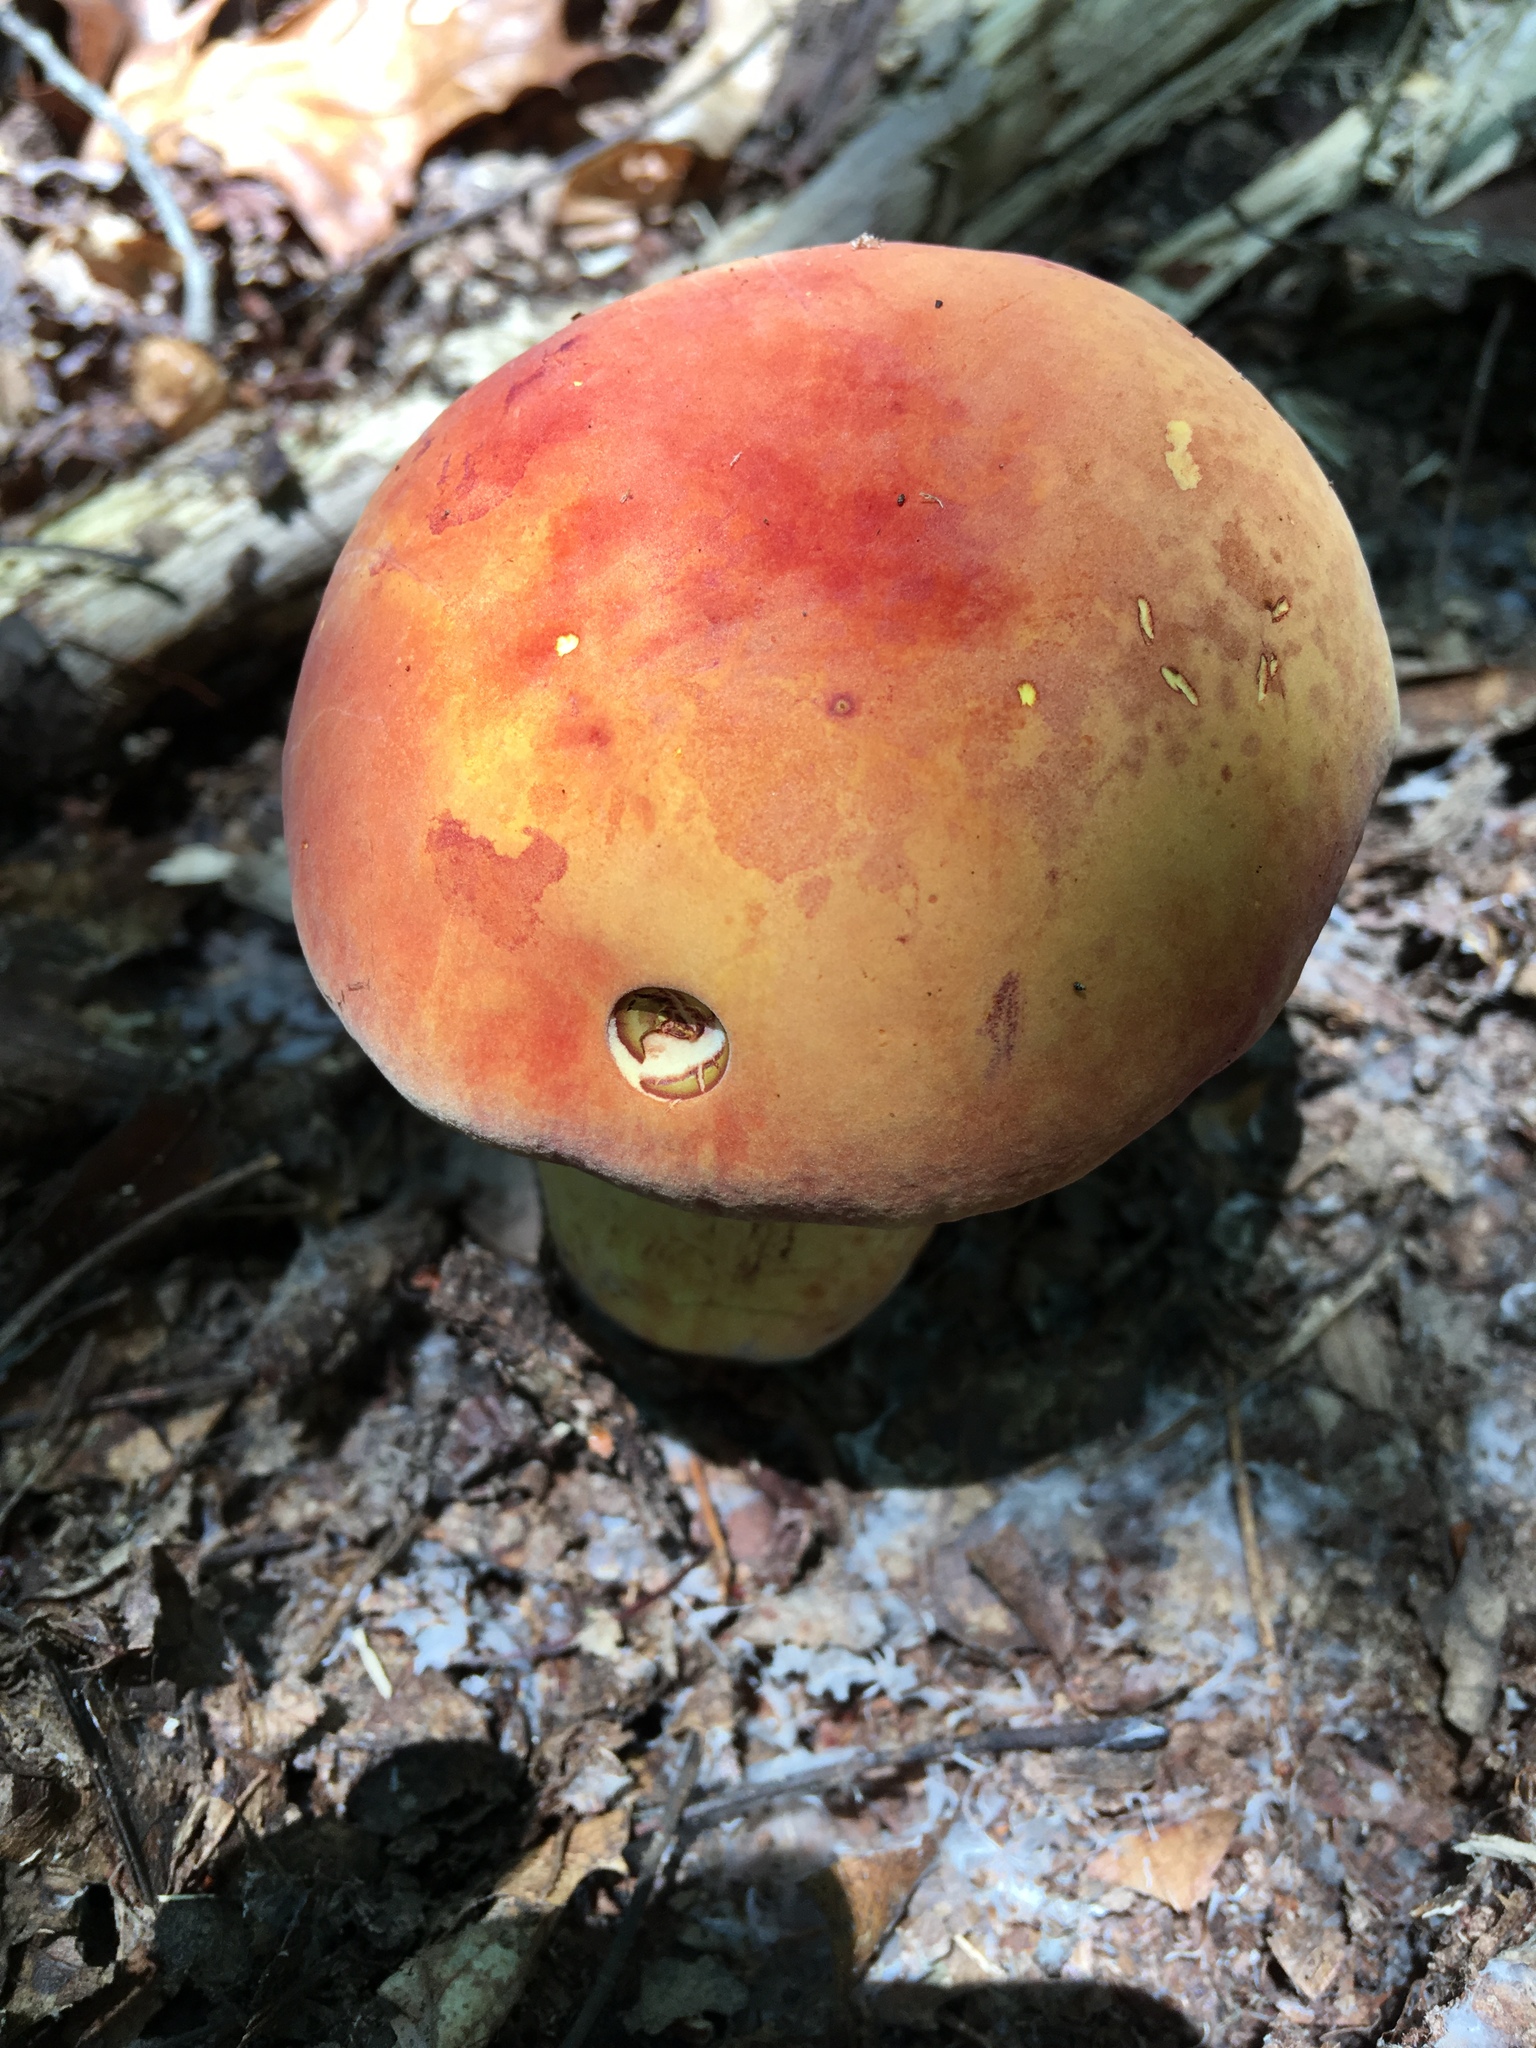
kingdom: Fungi
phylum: Basidiomycota
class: Agaricomycetes
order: Boletales
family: Boletaceae
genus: Lanmaoa
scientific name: Lanmaoa pseudosensibilis
